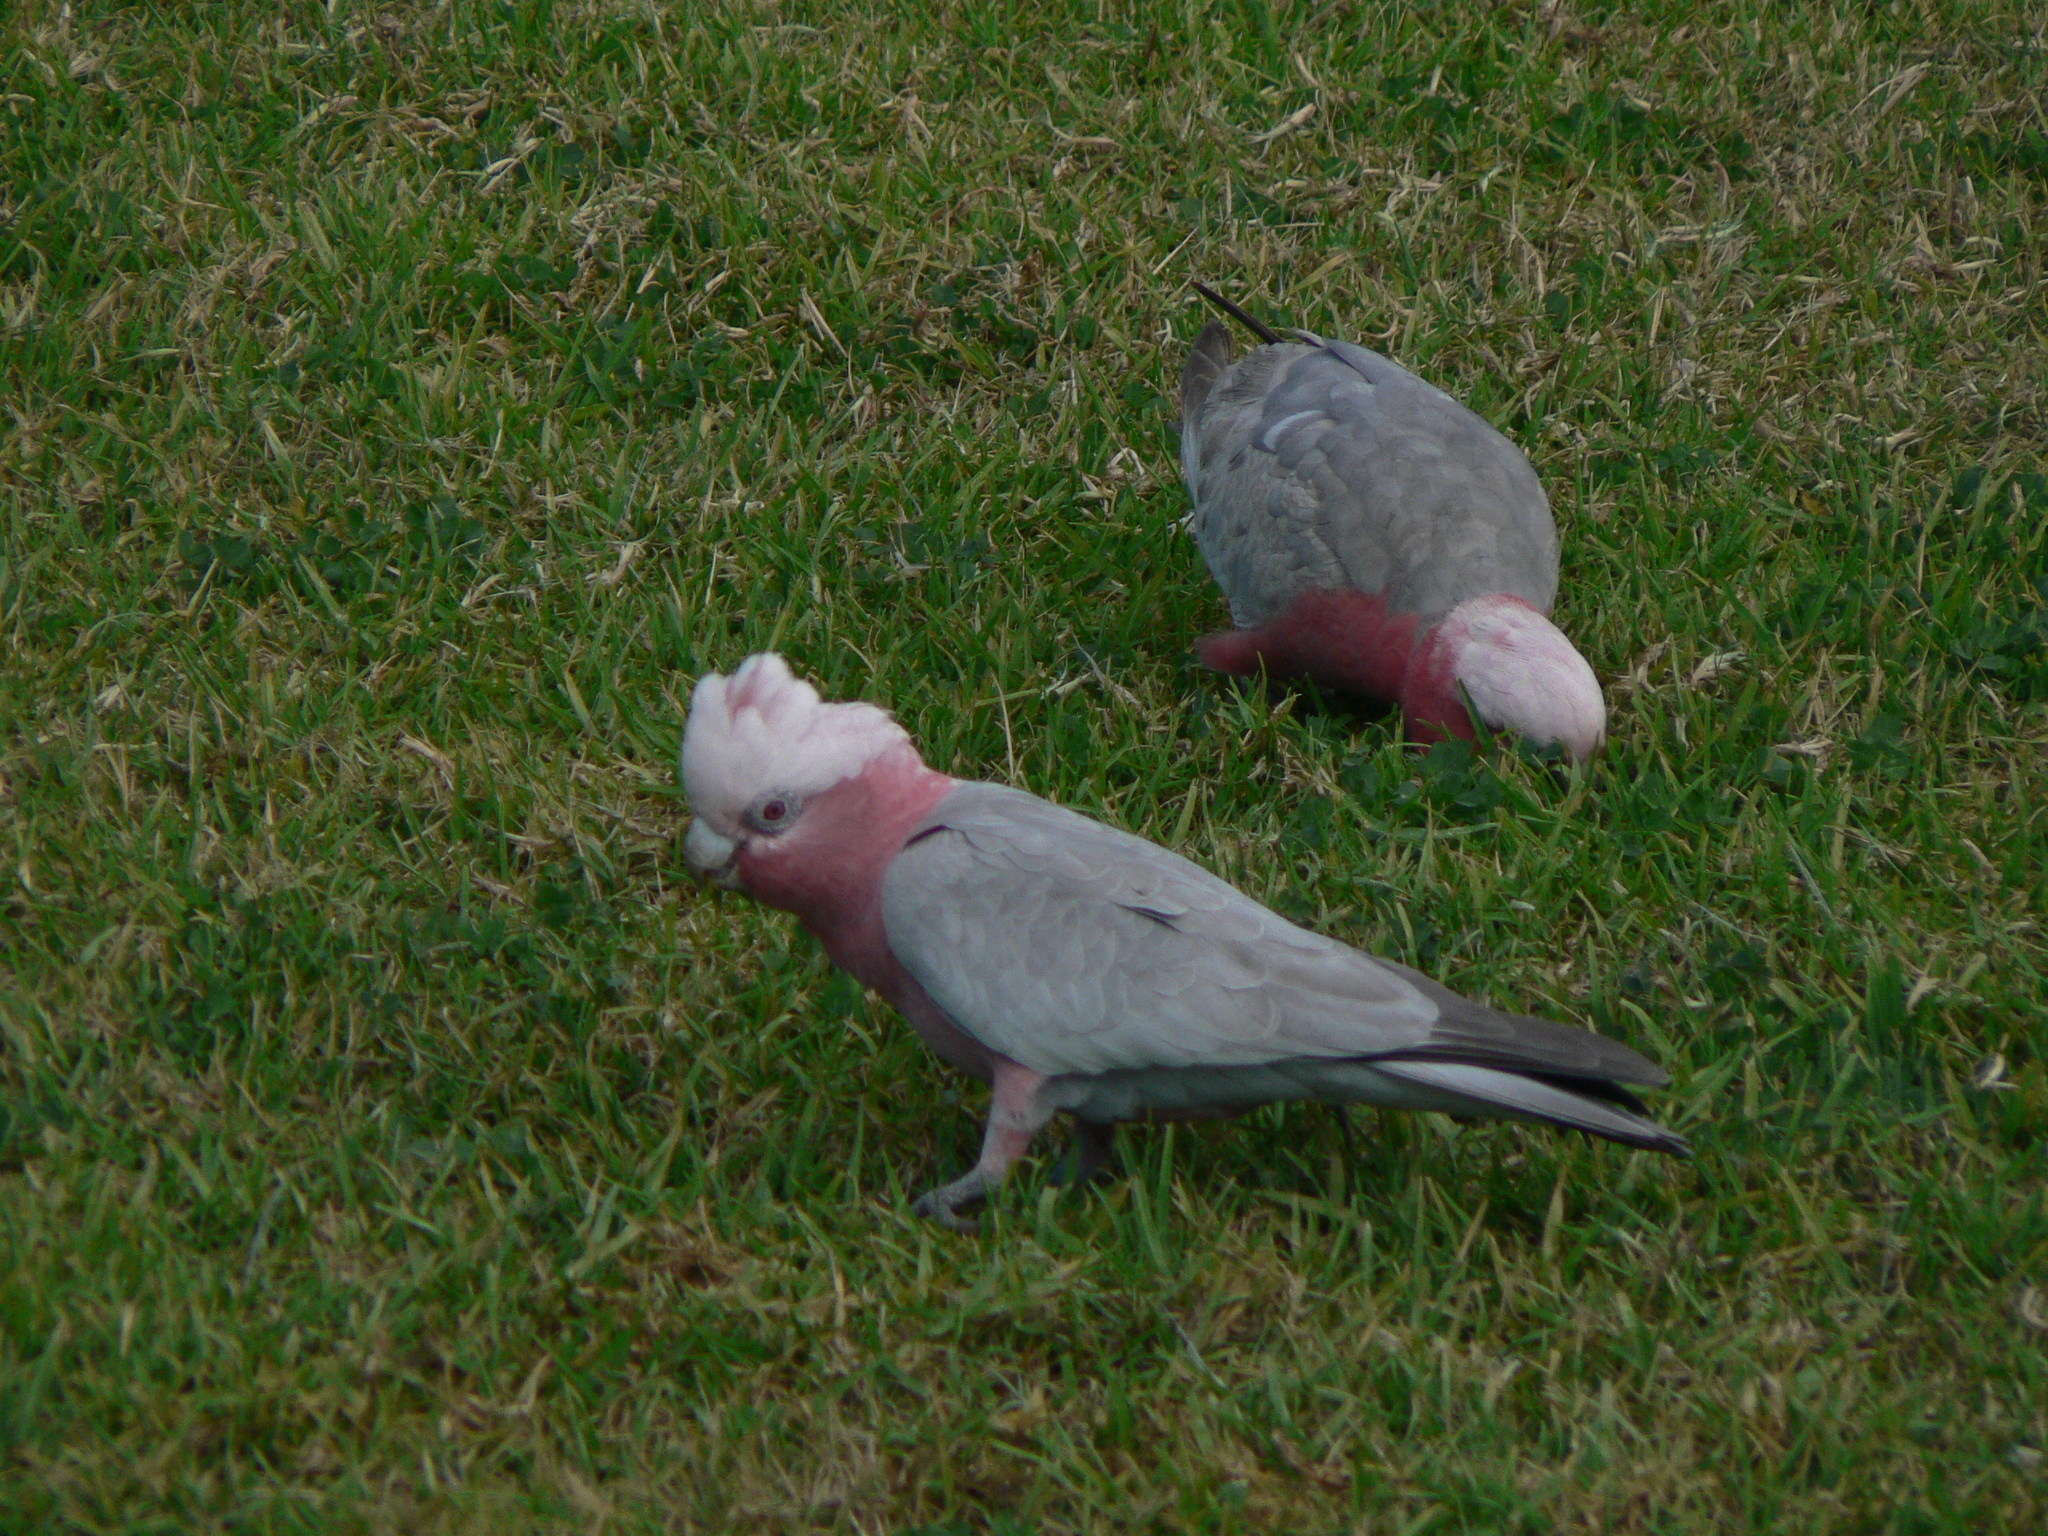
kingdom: Animalia
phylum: Chordata
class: Aves
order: Psittaciformes
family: Psittacidae
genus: Eolophus
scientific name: Eolophus roseicapilla
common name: Galah
